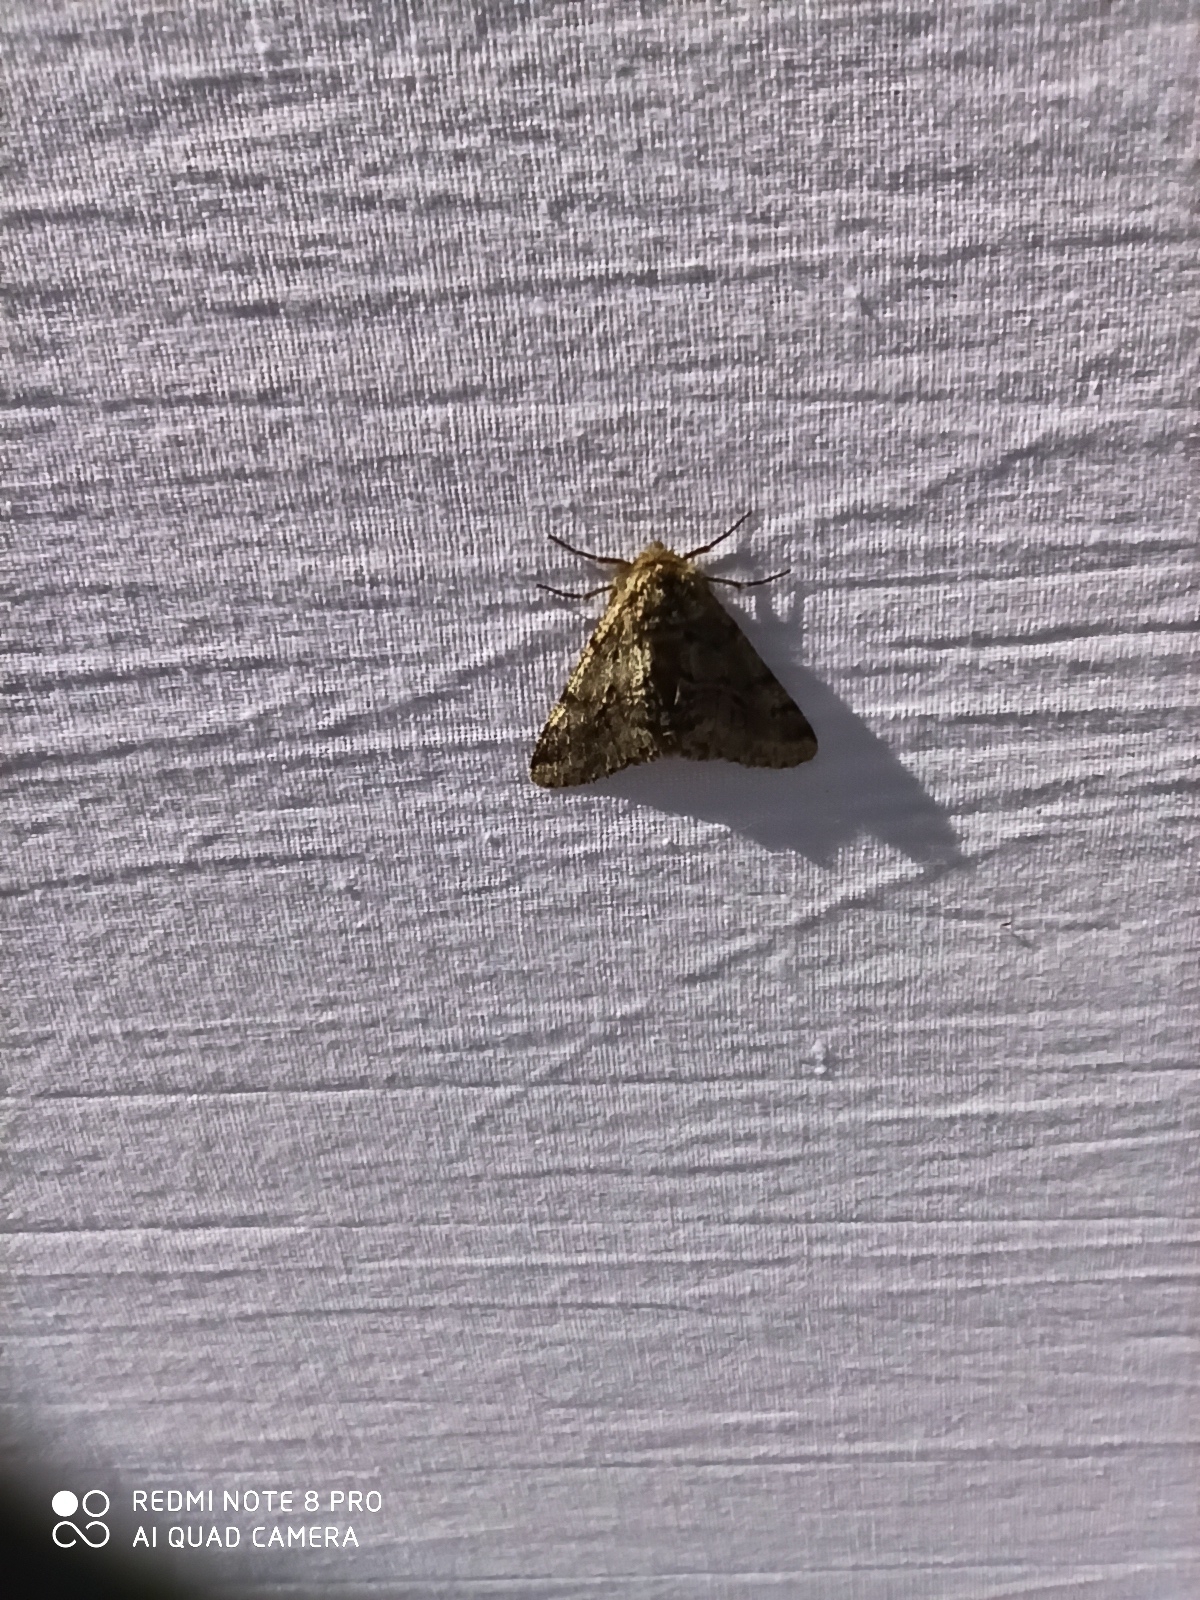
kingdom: Animalia
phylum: Arthropoda
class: Insecta
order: Lepidoptera
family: Geometridae
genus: Lycia
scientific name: Lycia hirtaria
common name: Brindled beauty
